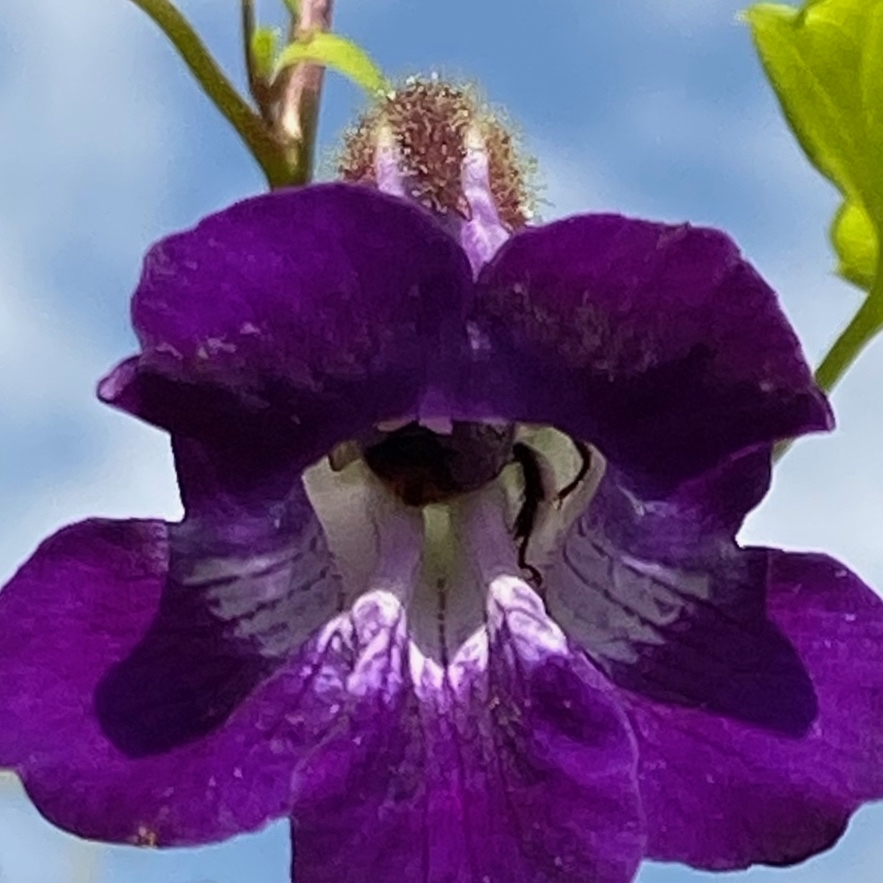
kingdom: Animalia
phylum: Arthropoda
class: Insecta
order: Hymenoptera
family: Apidae
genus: Anthophora
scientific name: Anthophora terminalis
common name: Orange-tipped wood-digger bee
